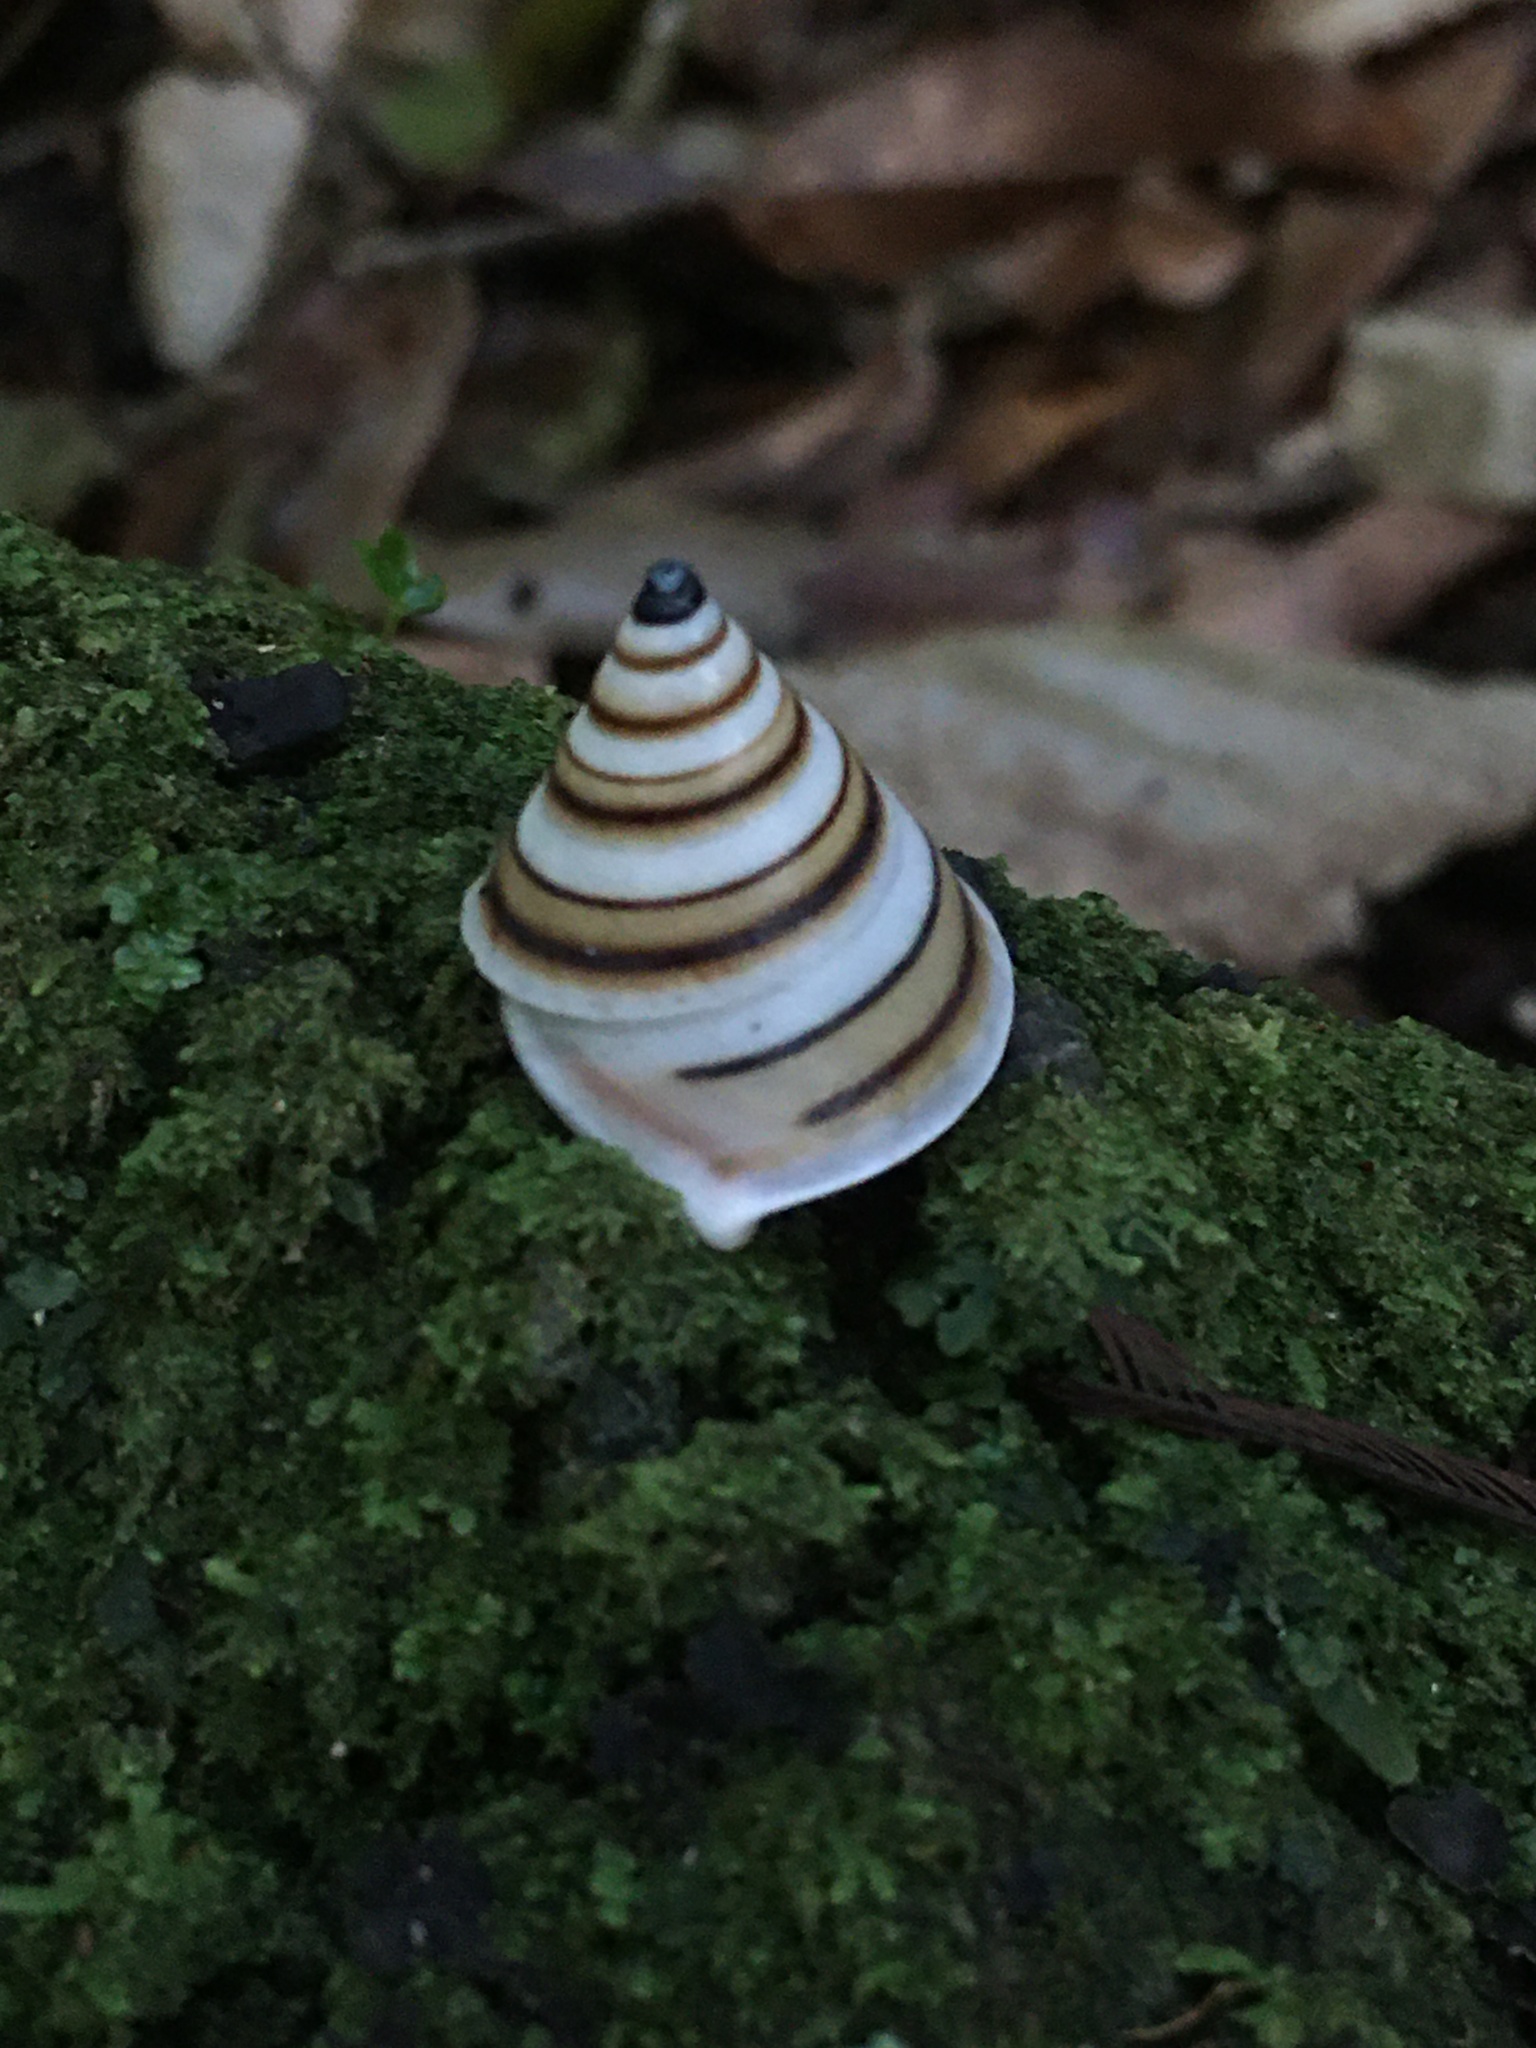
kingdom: Animalia
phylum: Mollusca
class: Gastropoda
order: Stylommatophora
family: Bulimulidae
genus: Oxychona
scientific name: Oxychona bifasciata
